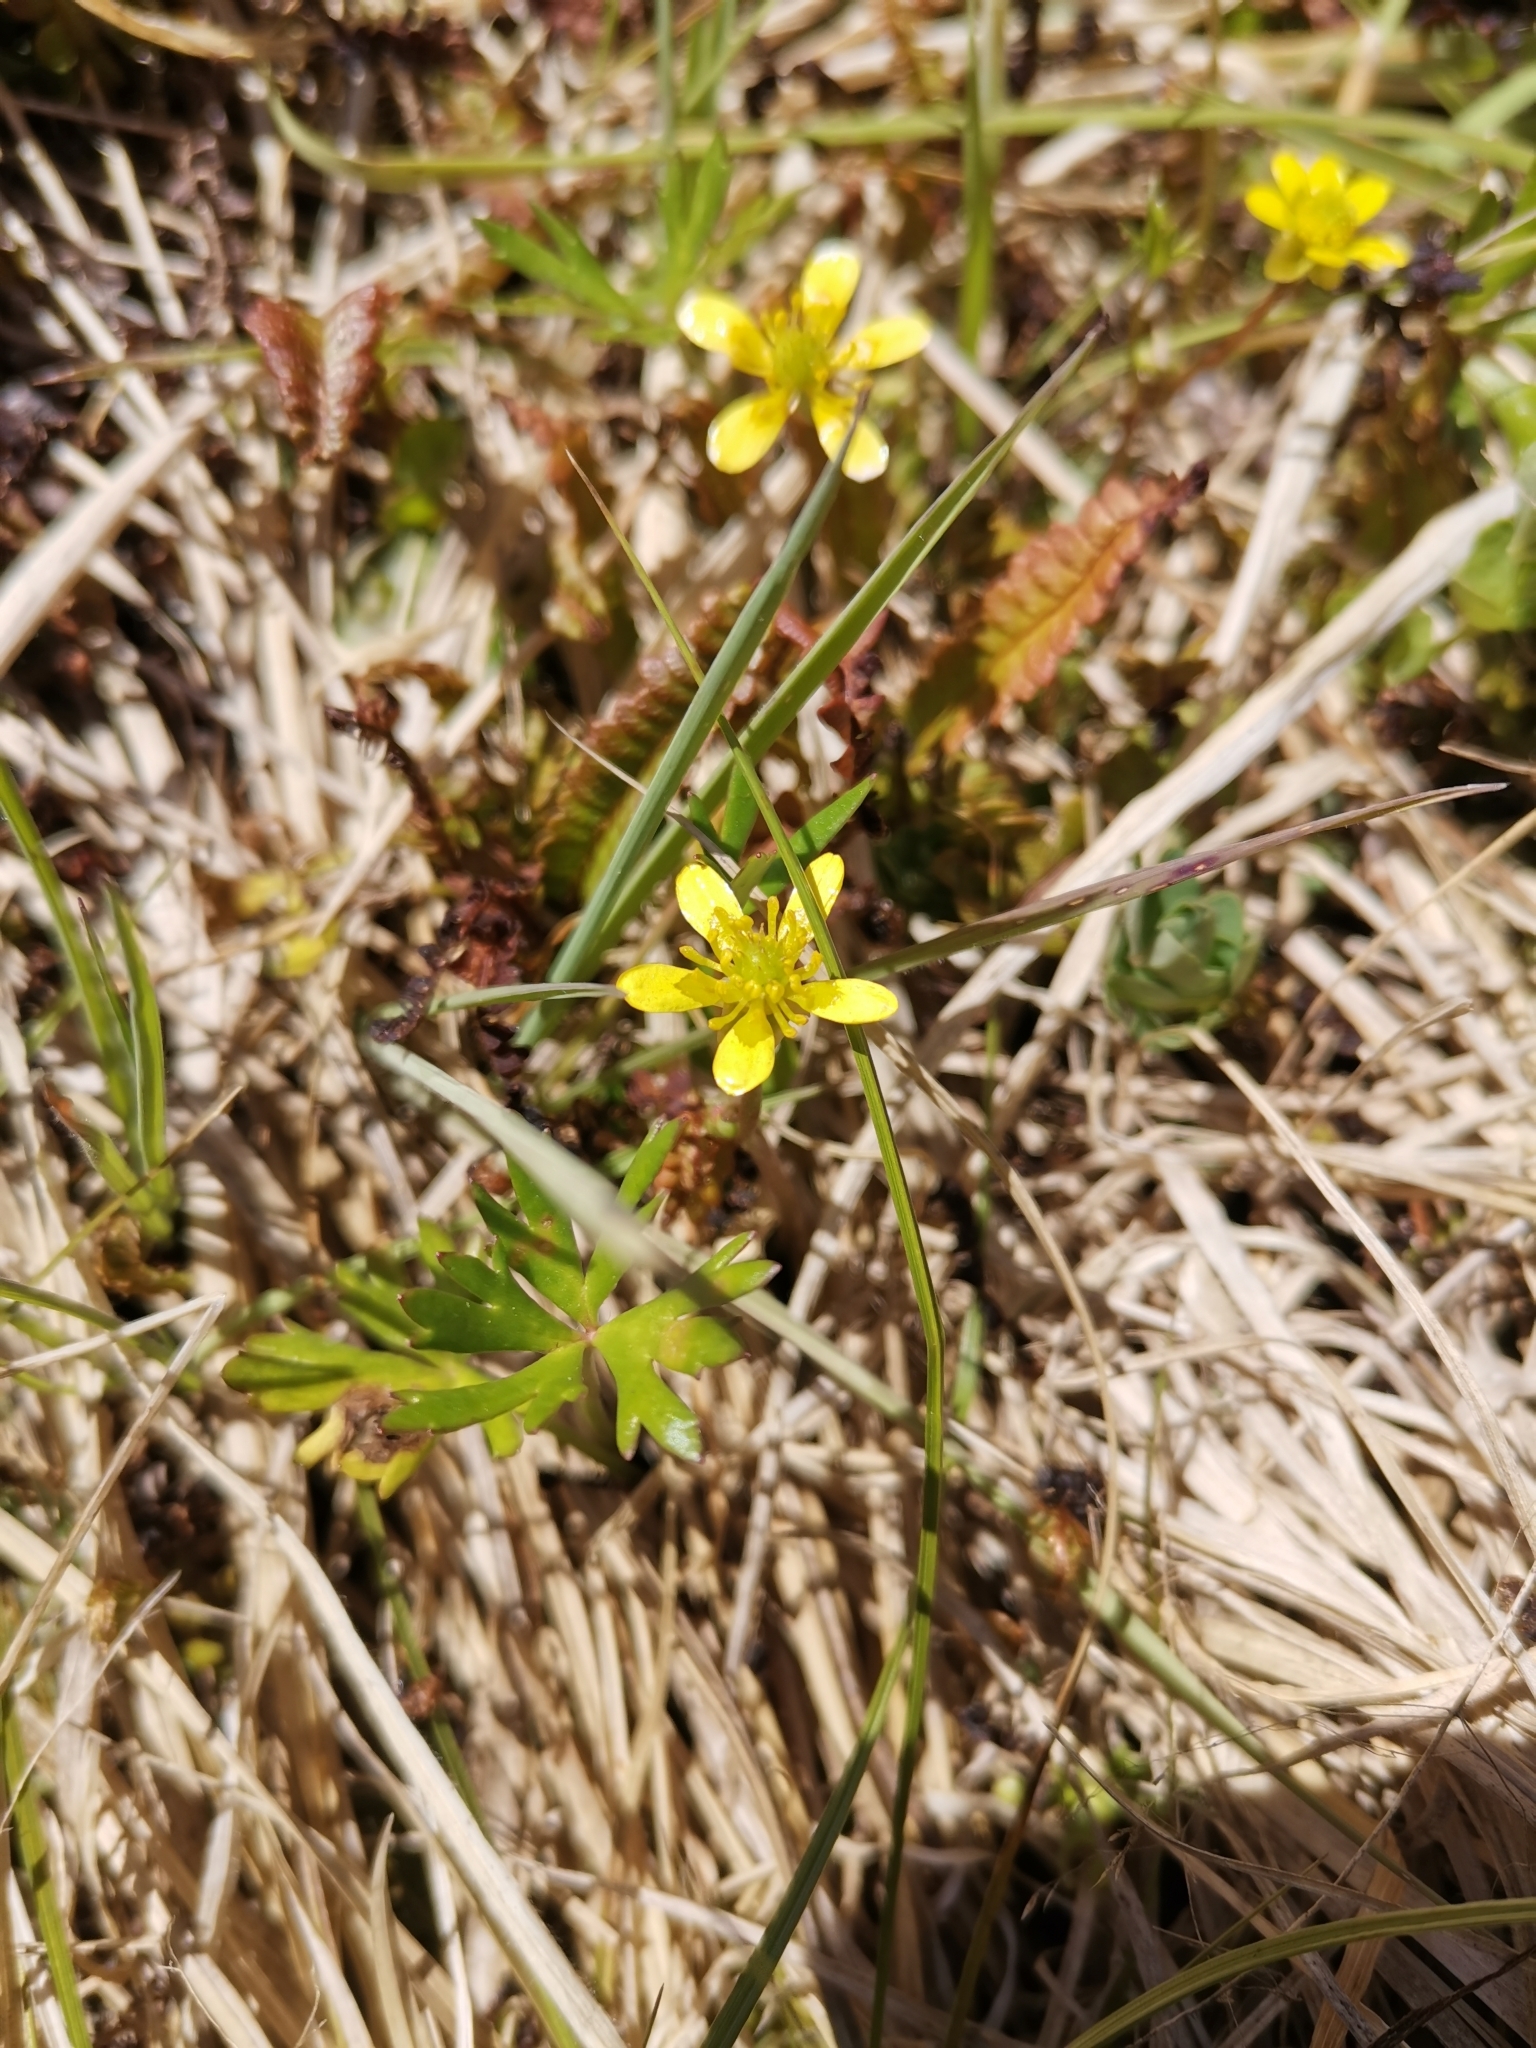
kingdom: Plantae
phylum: Tracheophyta
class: Magnoliopsida
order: Ranunculales
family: Ranunculaceae
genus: Ranunculus
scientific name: Ranunculus macropus
